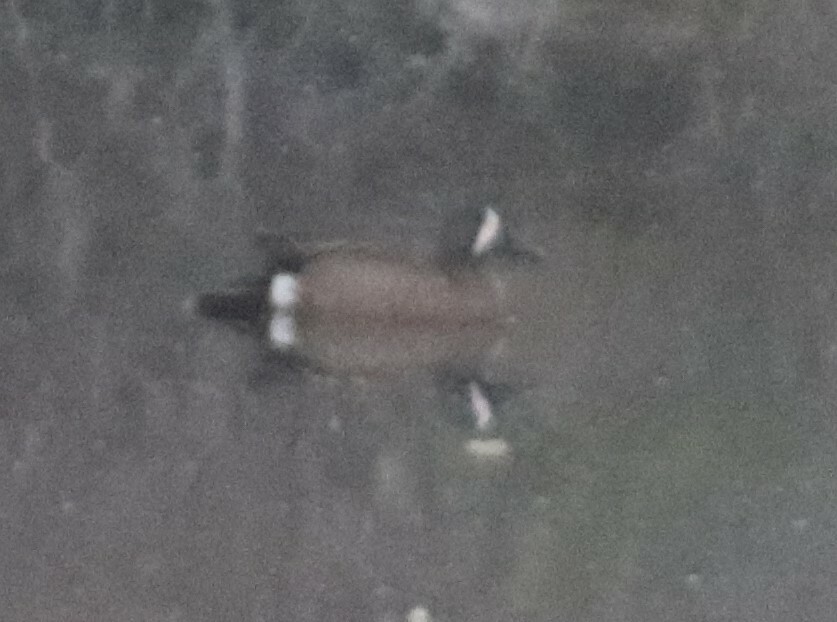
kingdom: Animalia
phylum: Chordata
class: Aves
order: Anseriformes
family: Anatidae
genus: Spatula
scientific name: Spatula discors
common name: Blue-winged teal
